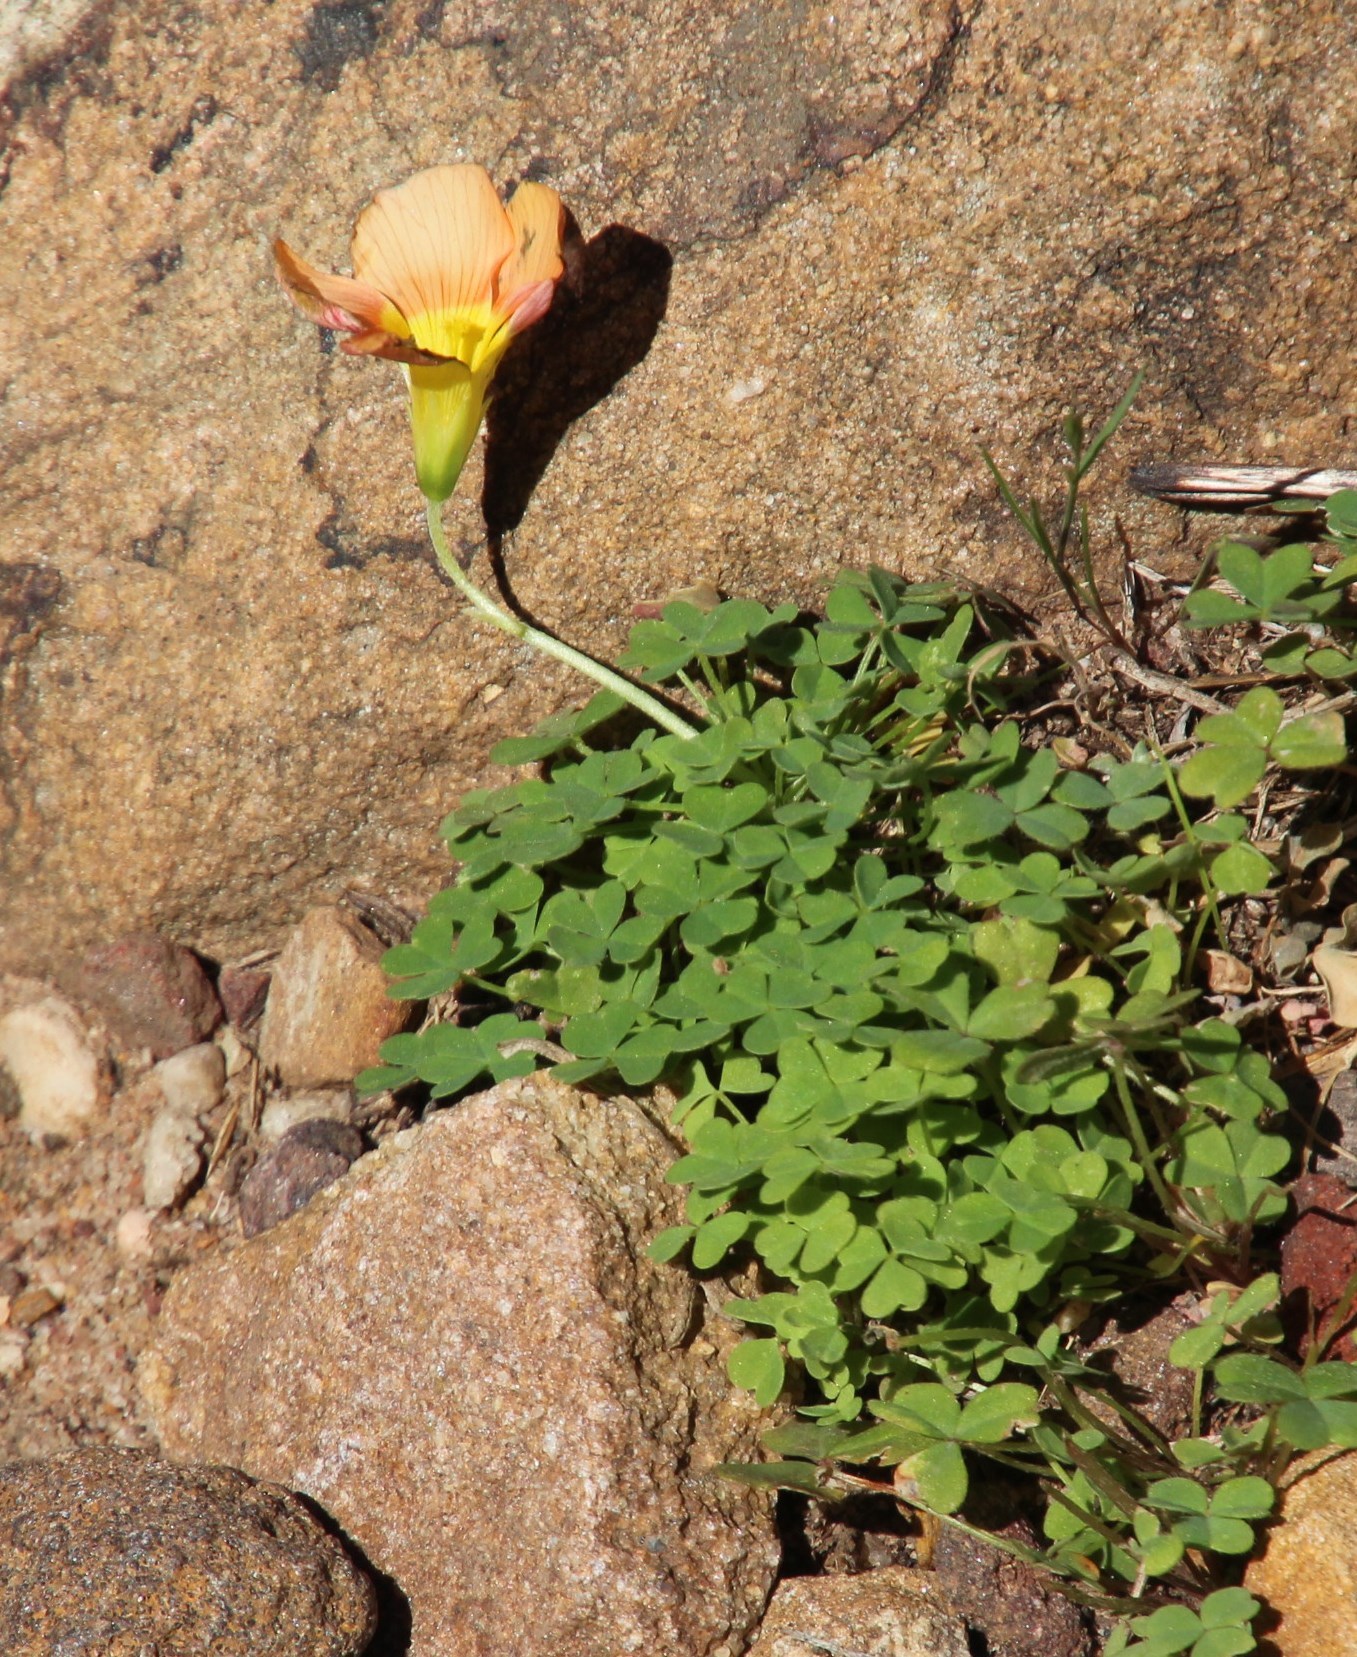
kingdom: Plantae
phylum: Tracheophyta
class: Magnoliopsida
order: Oxalidales
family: Oxalidaceae
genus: Oxalis
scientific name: Oxalis obtusa
